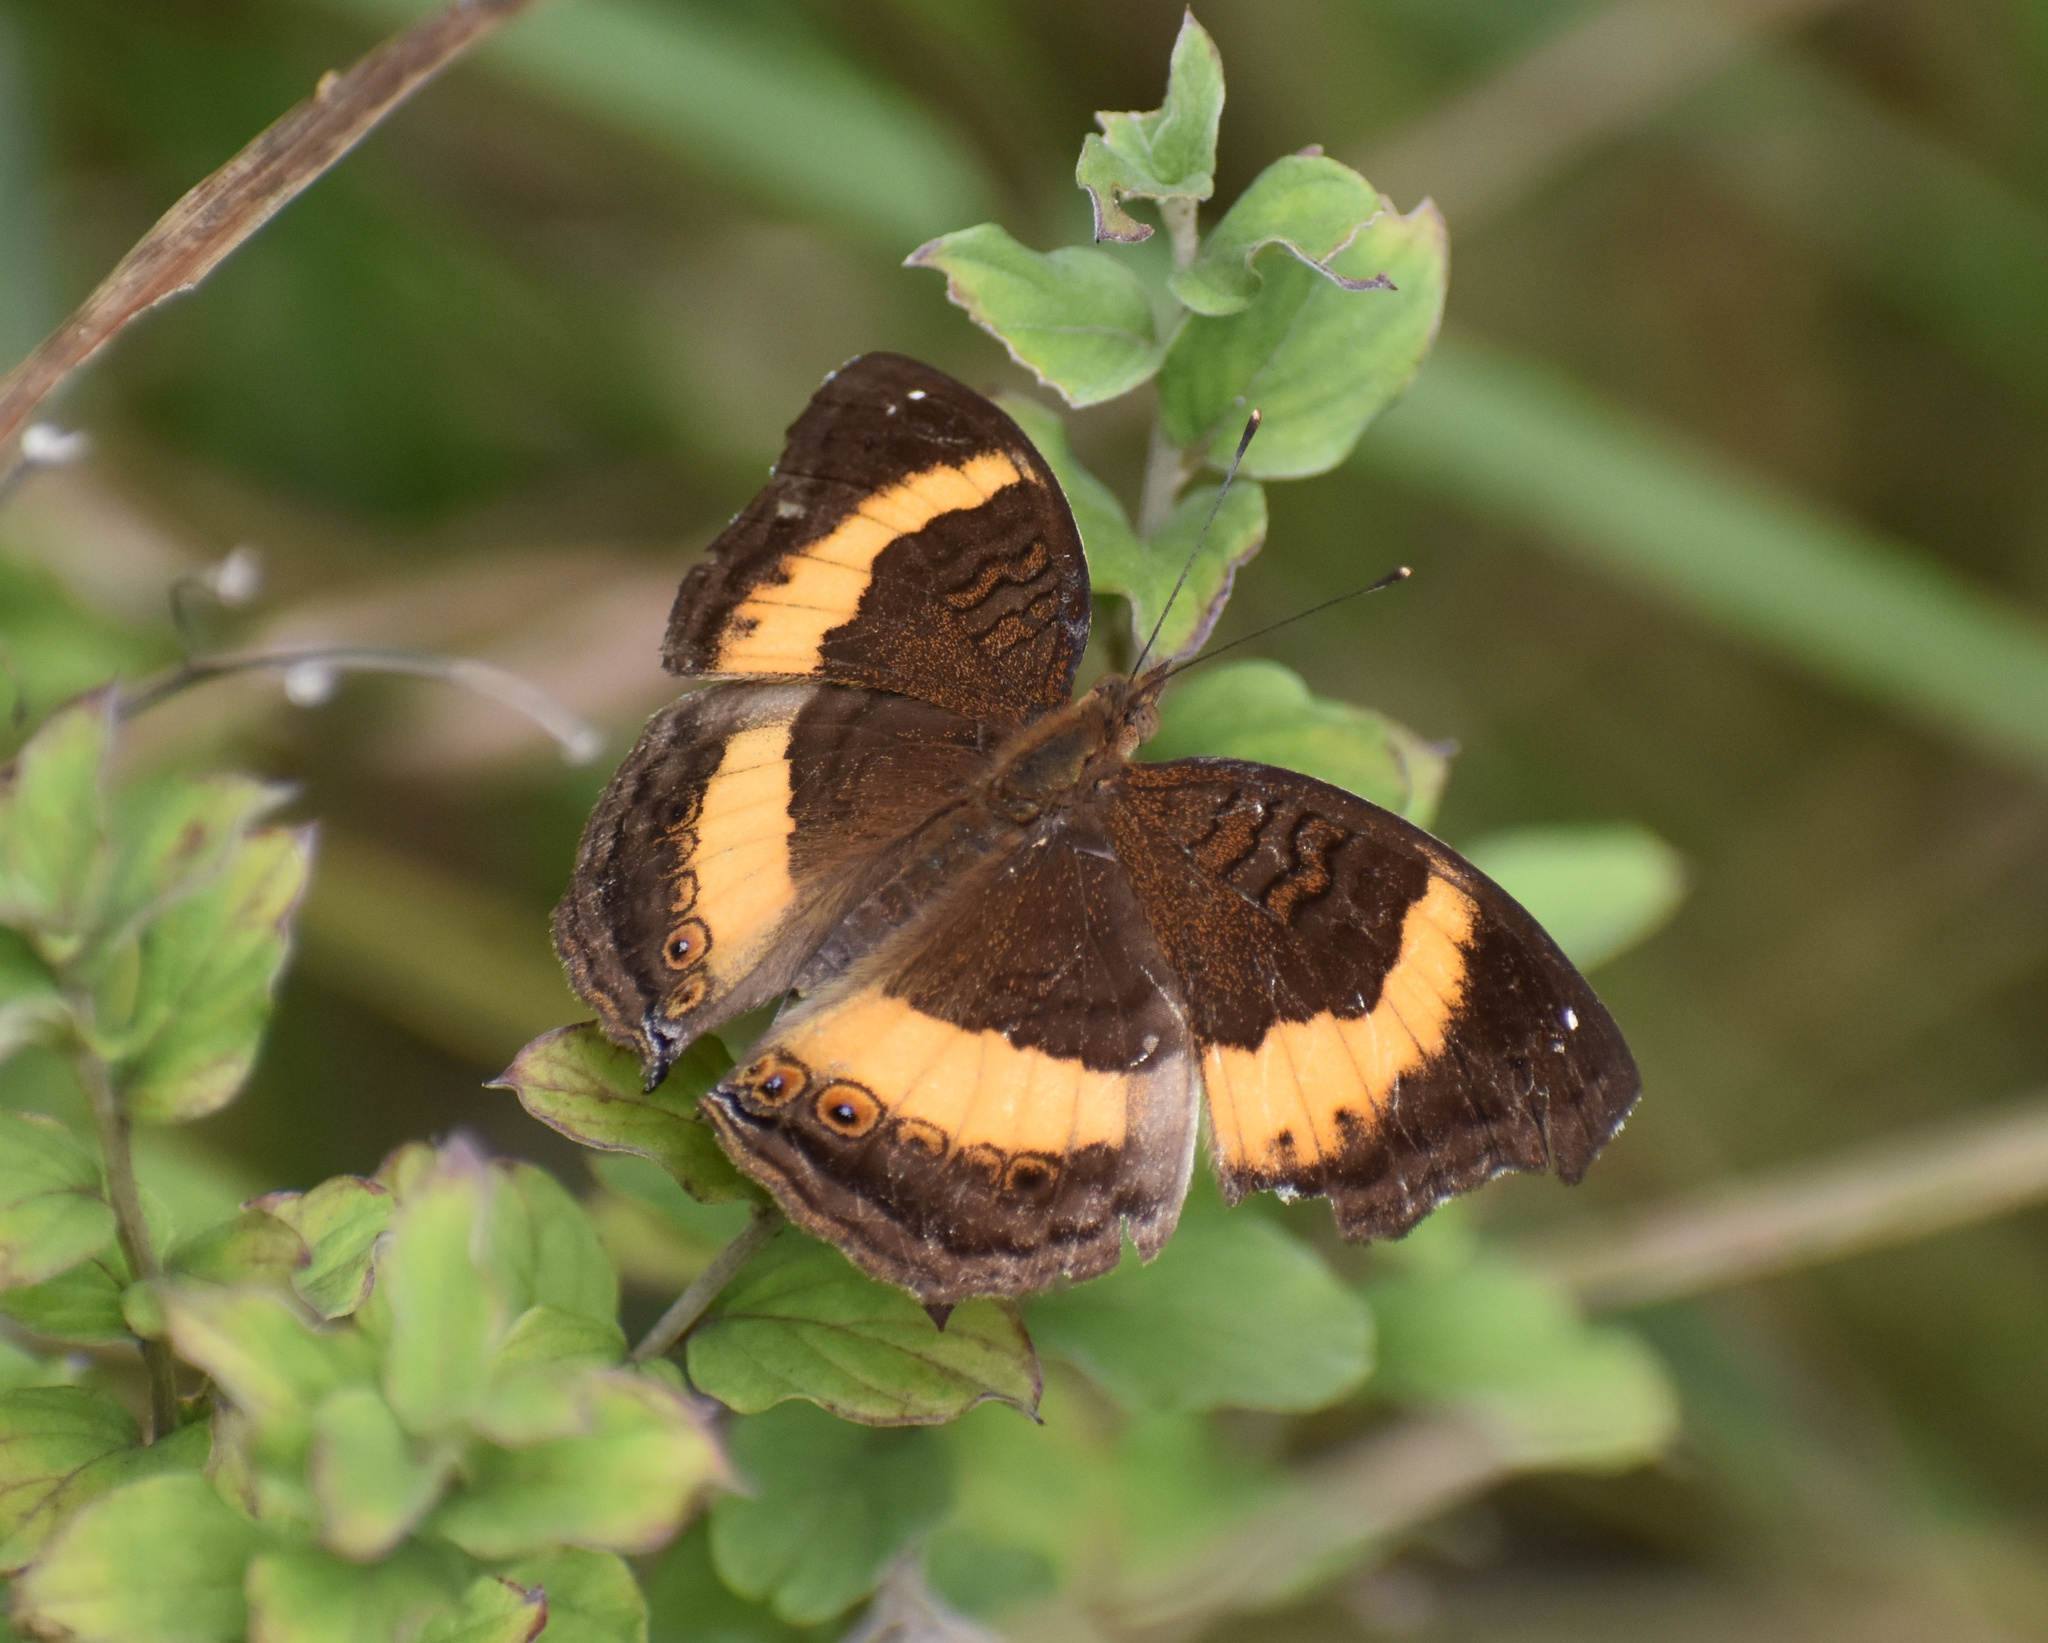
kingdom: Animalia
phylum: Arthropoda
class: Insecta
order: Lepidoptera
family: Nymphalidae
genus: Junonia
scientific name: Junonia terea
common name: Soldier pansy
